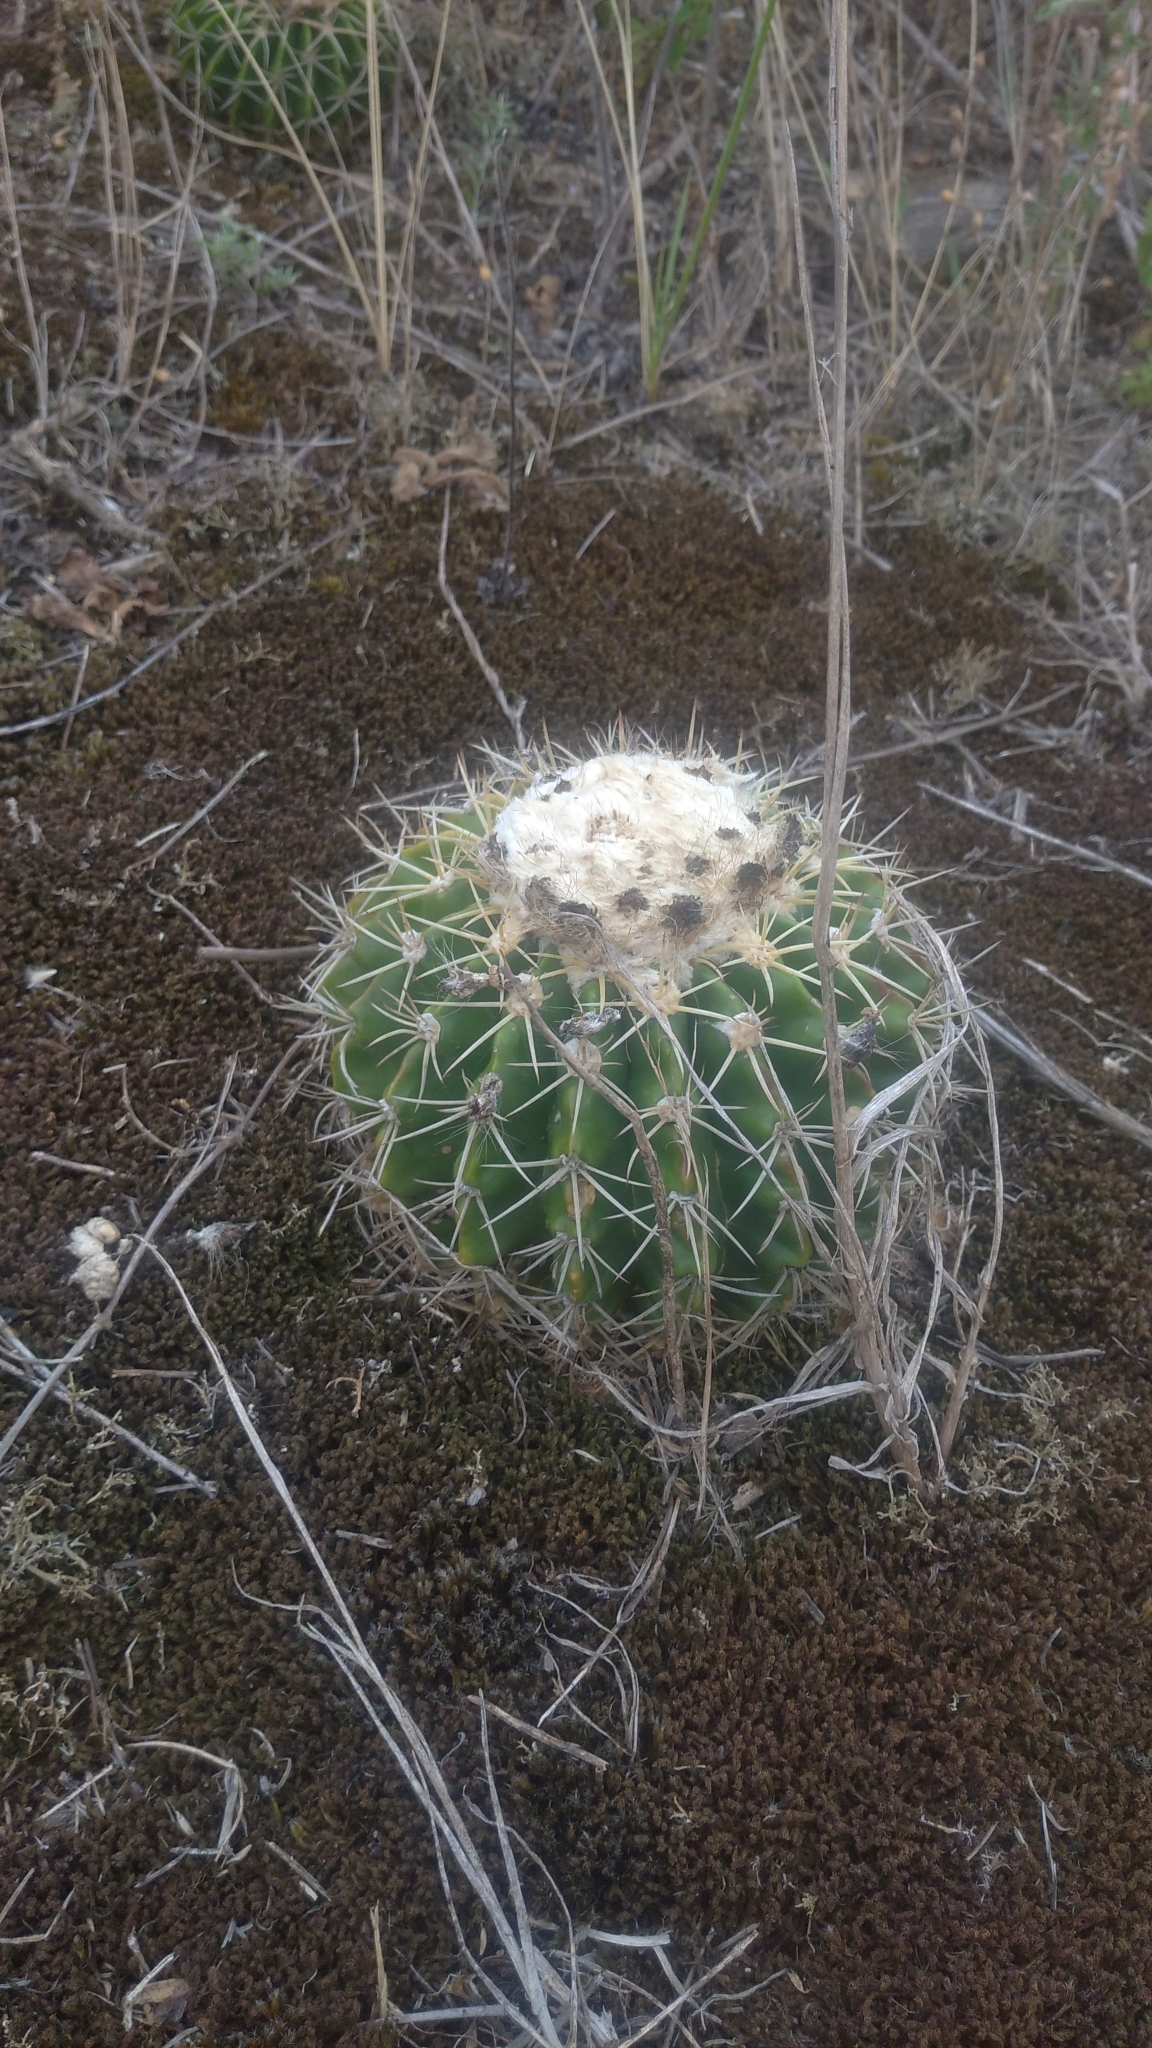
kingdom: Plantae
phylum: Tracheophyta
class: Magnoliopsida
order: Caryophyllales
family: Cactaceae
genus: Parodia
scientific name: Parodia erinacea
